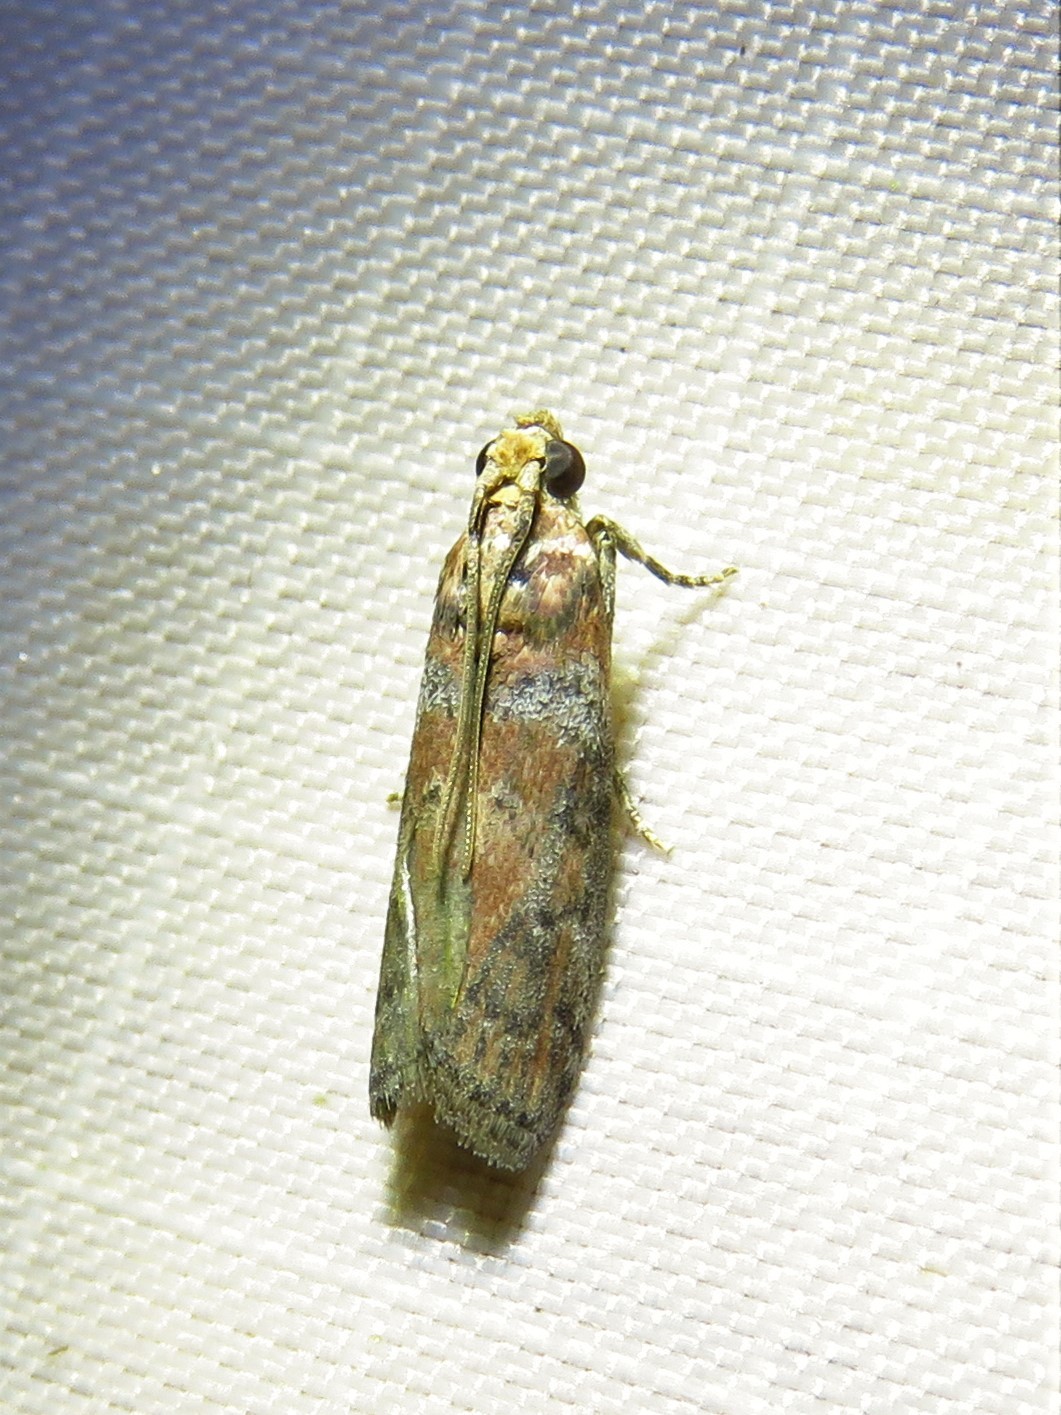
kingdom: Animalia
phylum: Arthropoda
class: Insecta
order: Lepidoptera
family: Pyralidae
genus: Sciota
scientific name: Sciota celtidella
